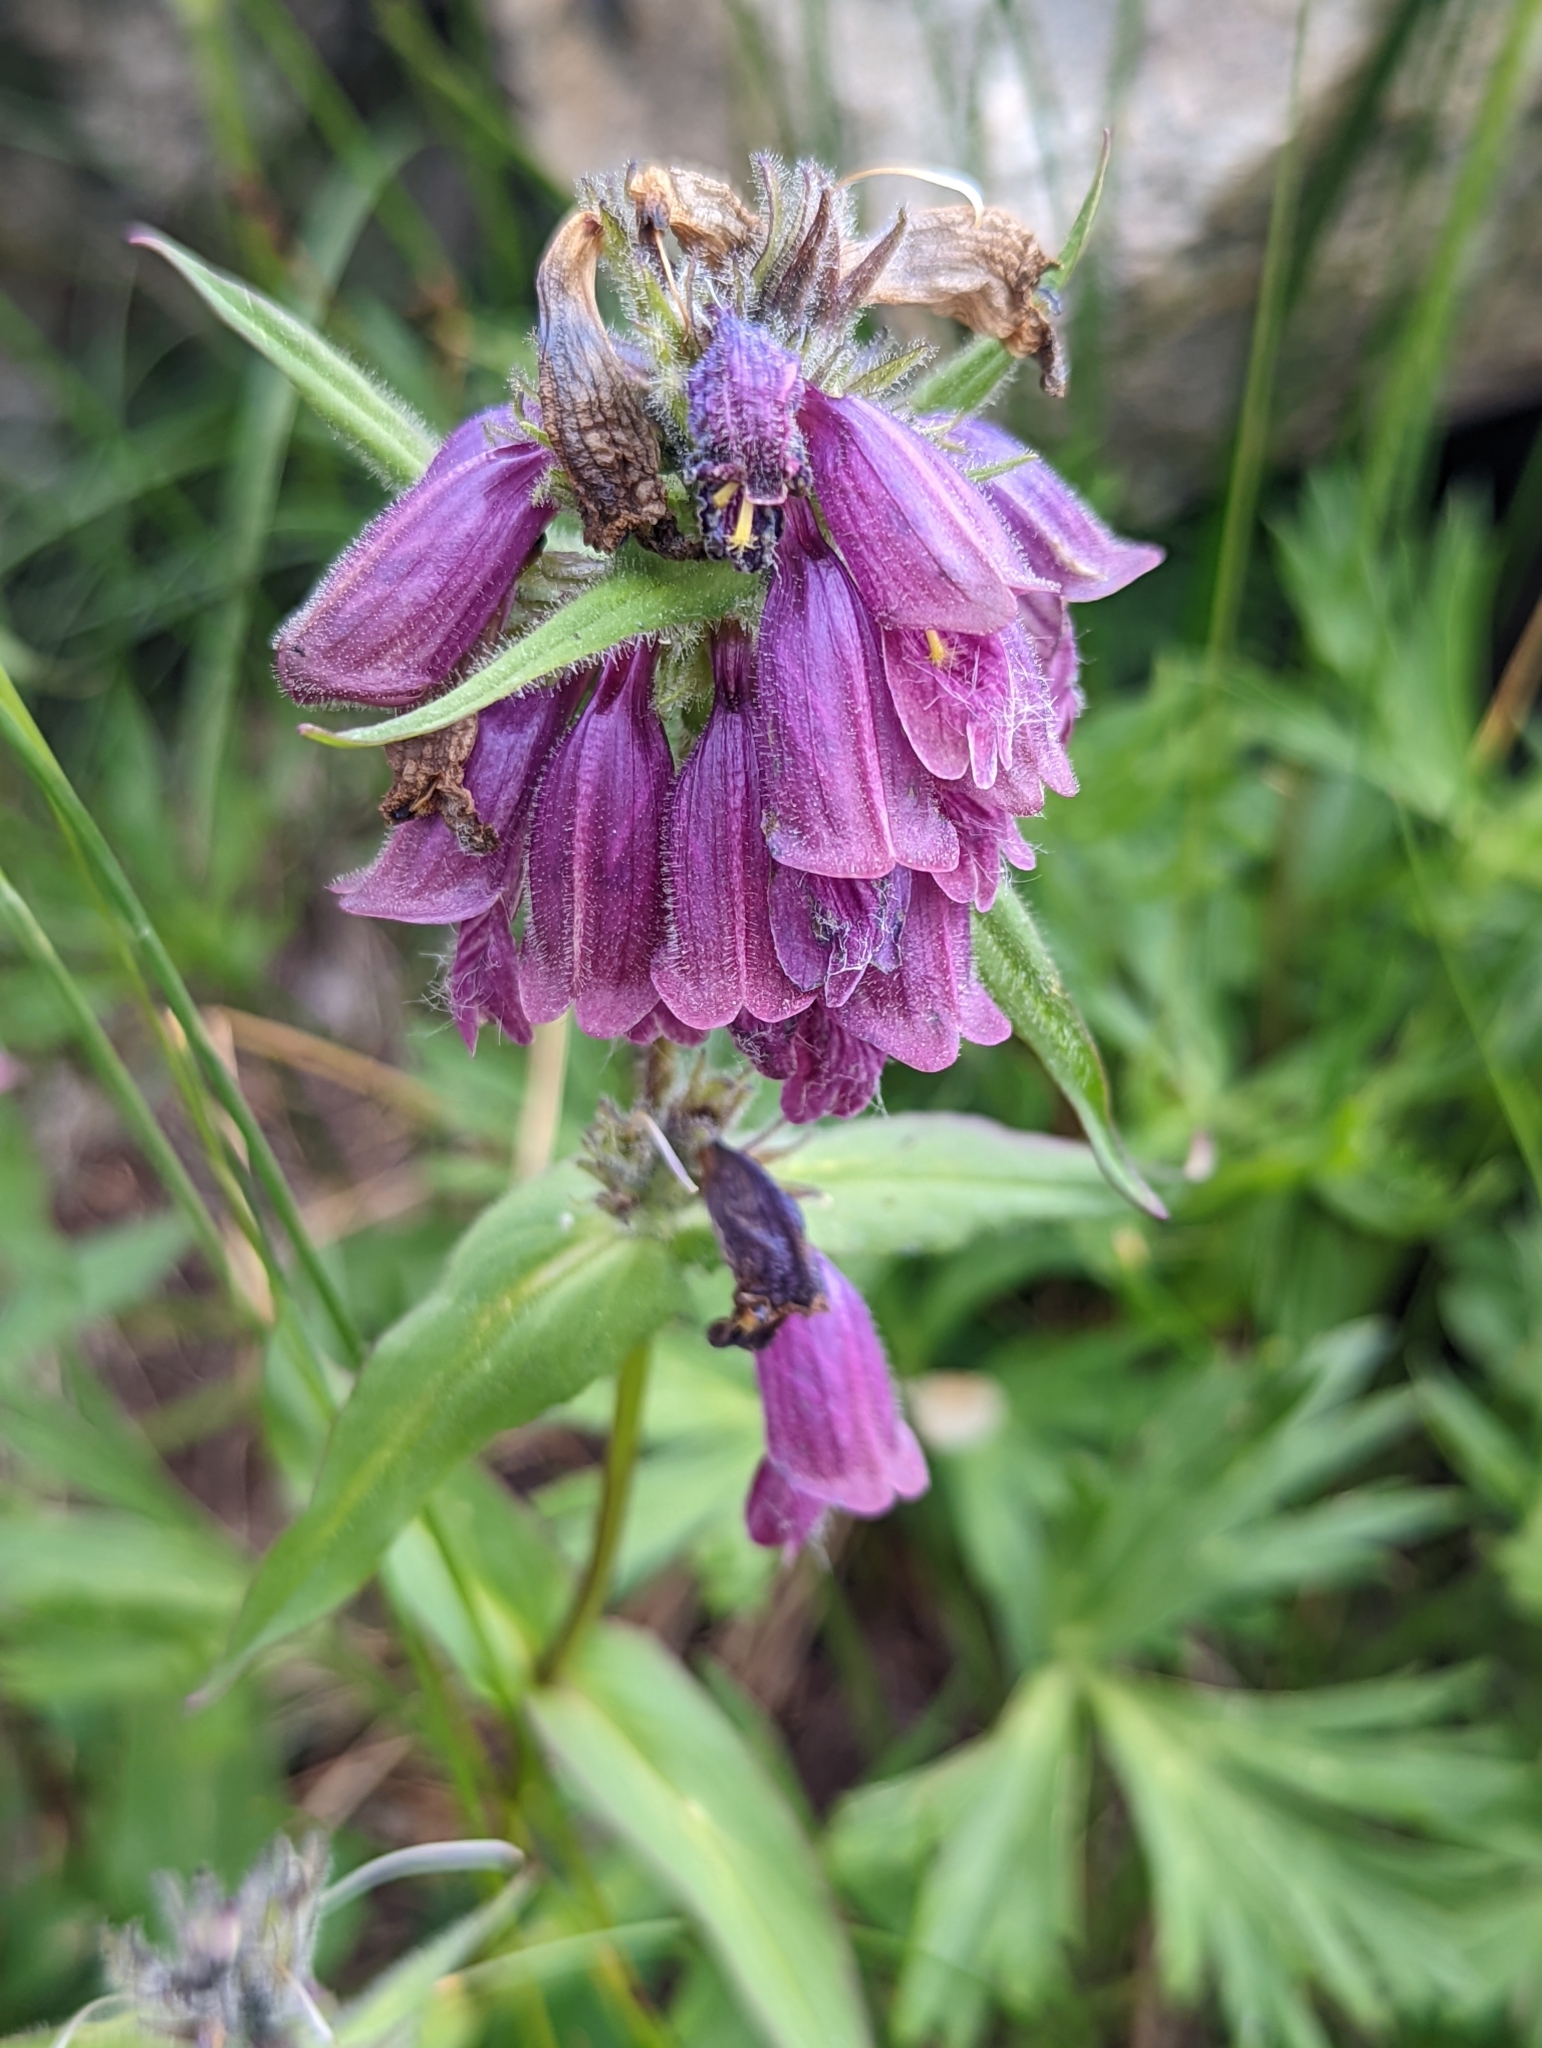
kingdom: Plantae
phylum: Tracheophyta
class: Magnoliopsida
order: Lamiales
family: Plantaginaceae
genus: Penstemon
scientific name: Penstemon whippleanus
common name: Whipple's penstemon
